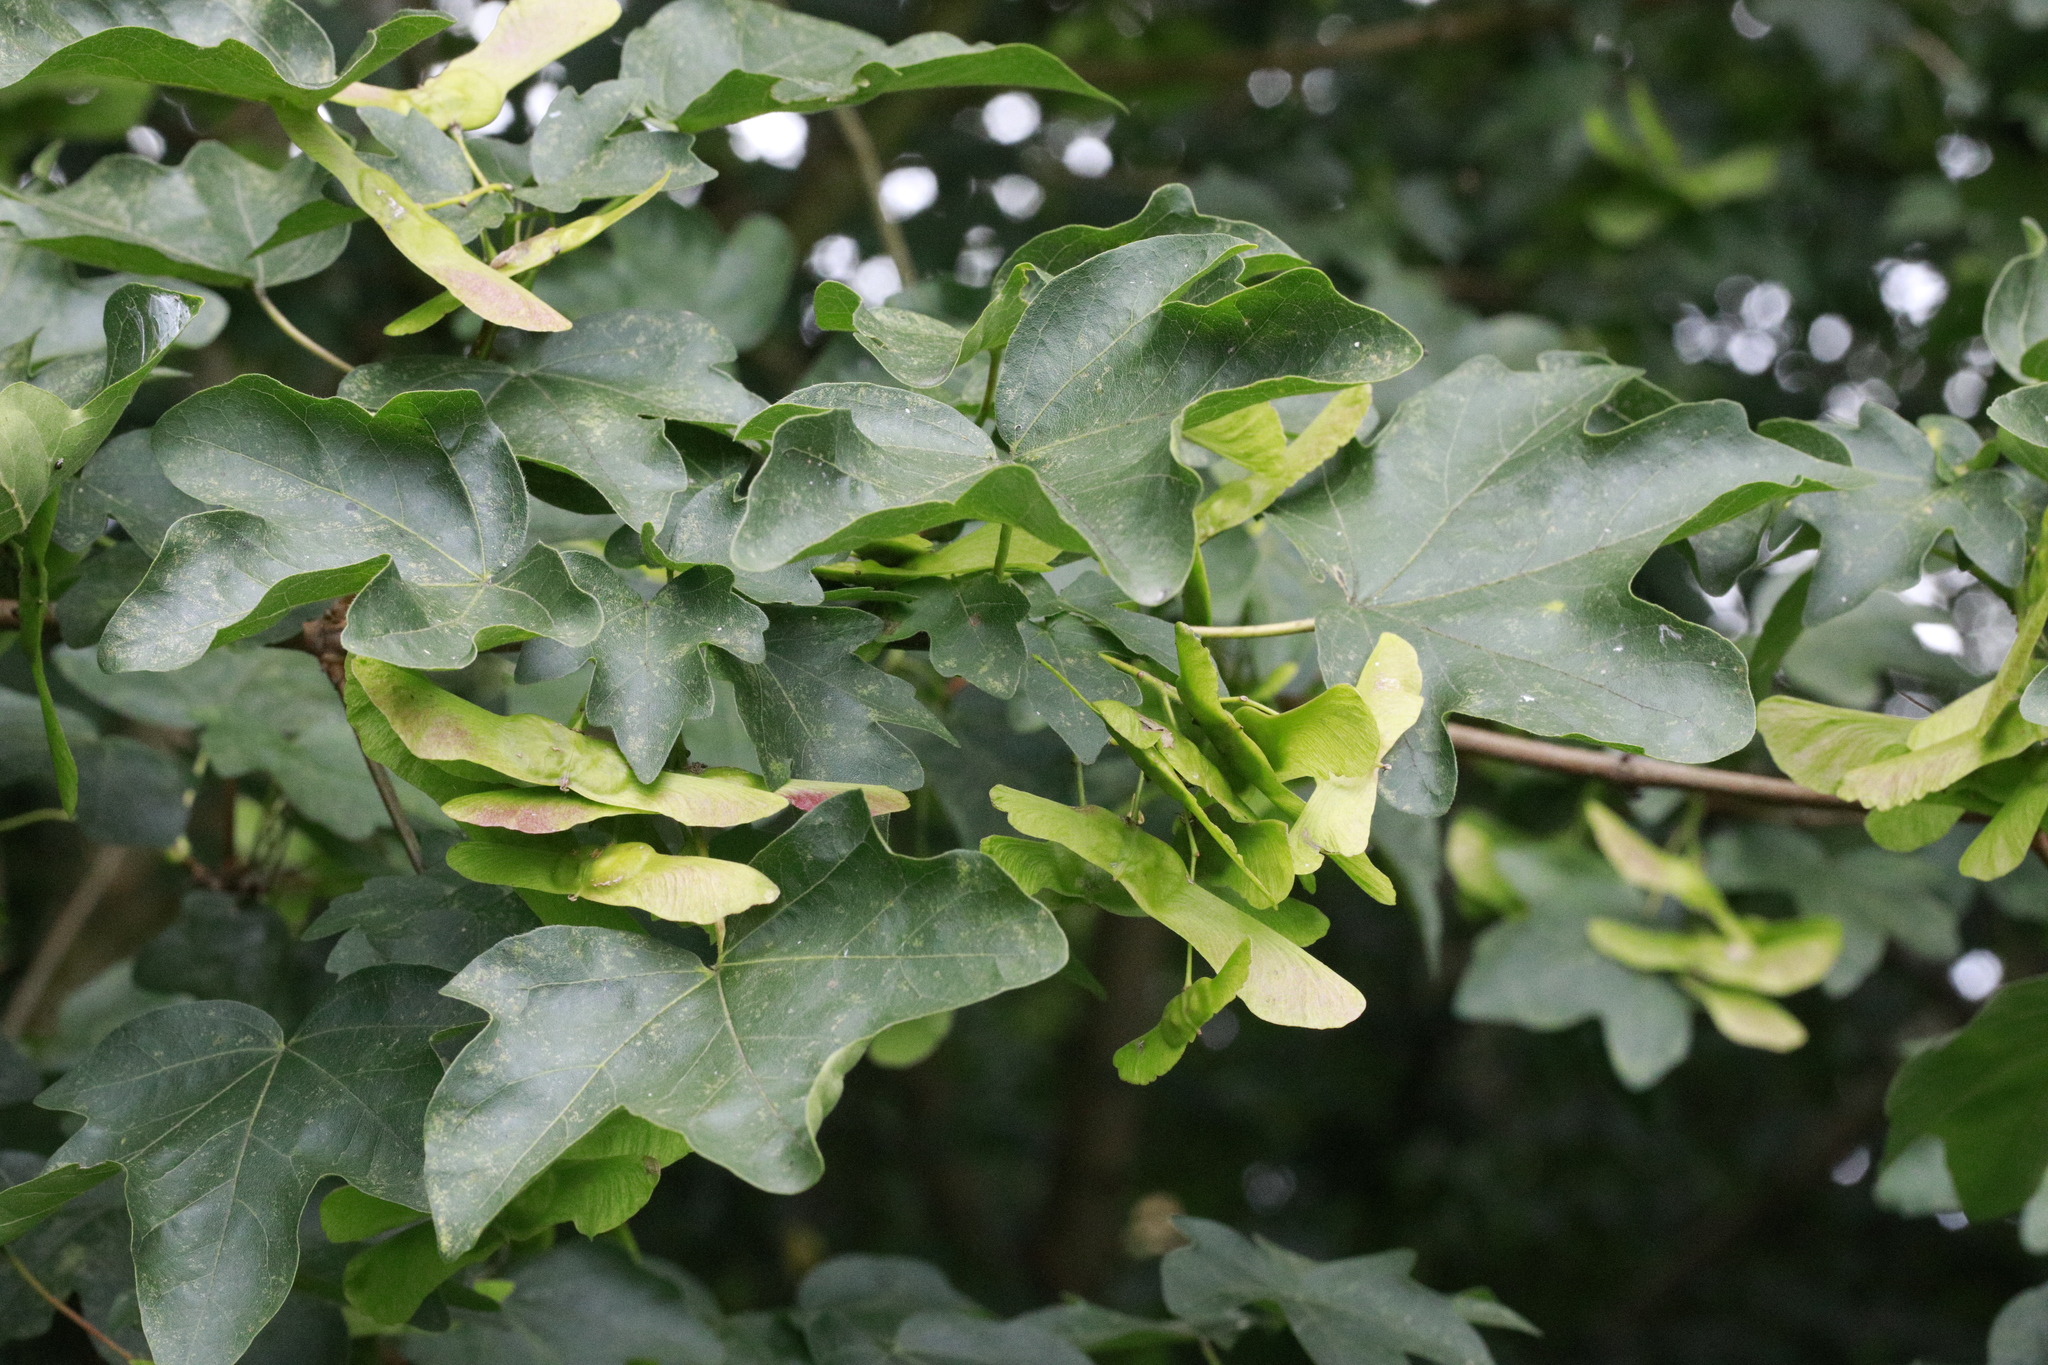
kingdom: Plantae
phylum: Tracheophyta
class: Magnoliopsida
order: Sapindales
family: Sapindaceae
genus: Acer
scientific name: Acer campestre
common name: Field maple
